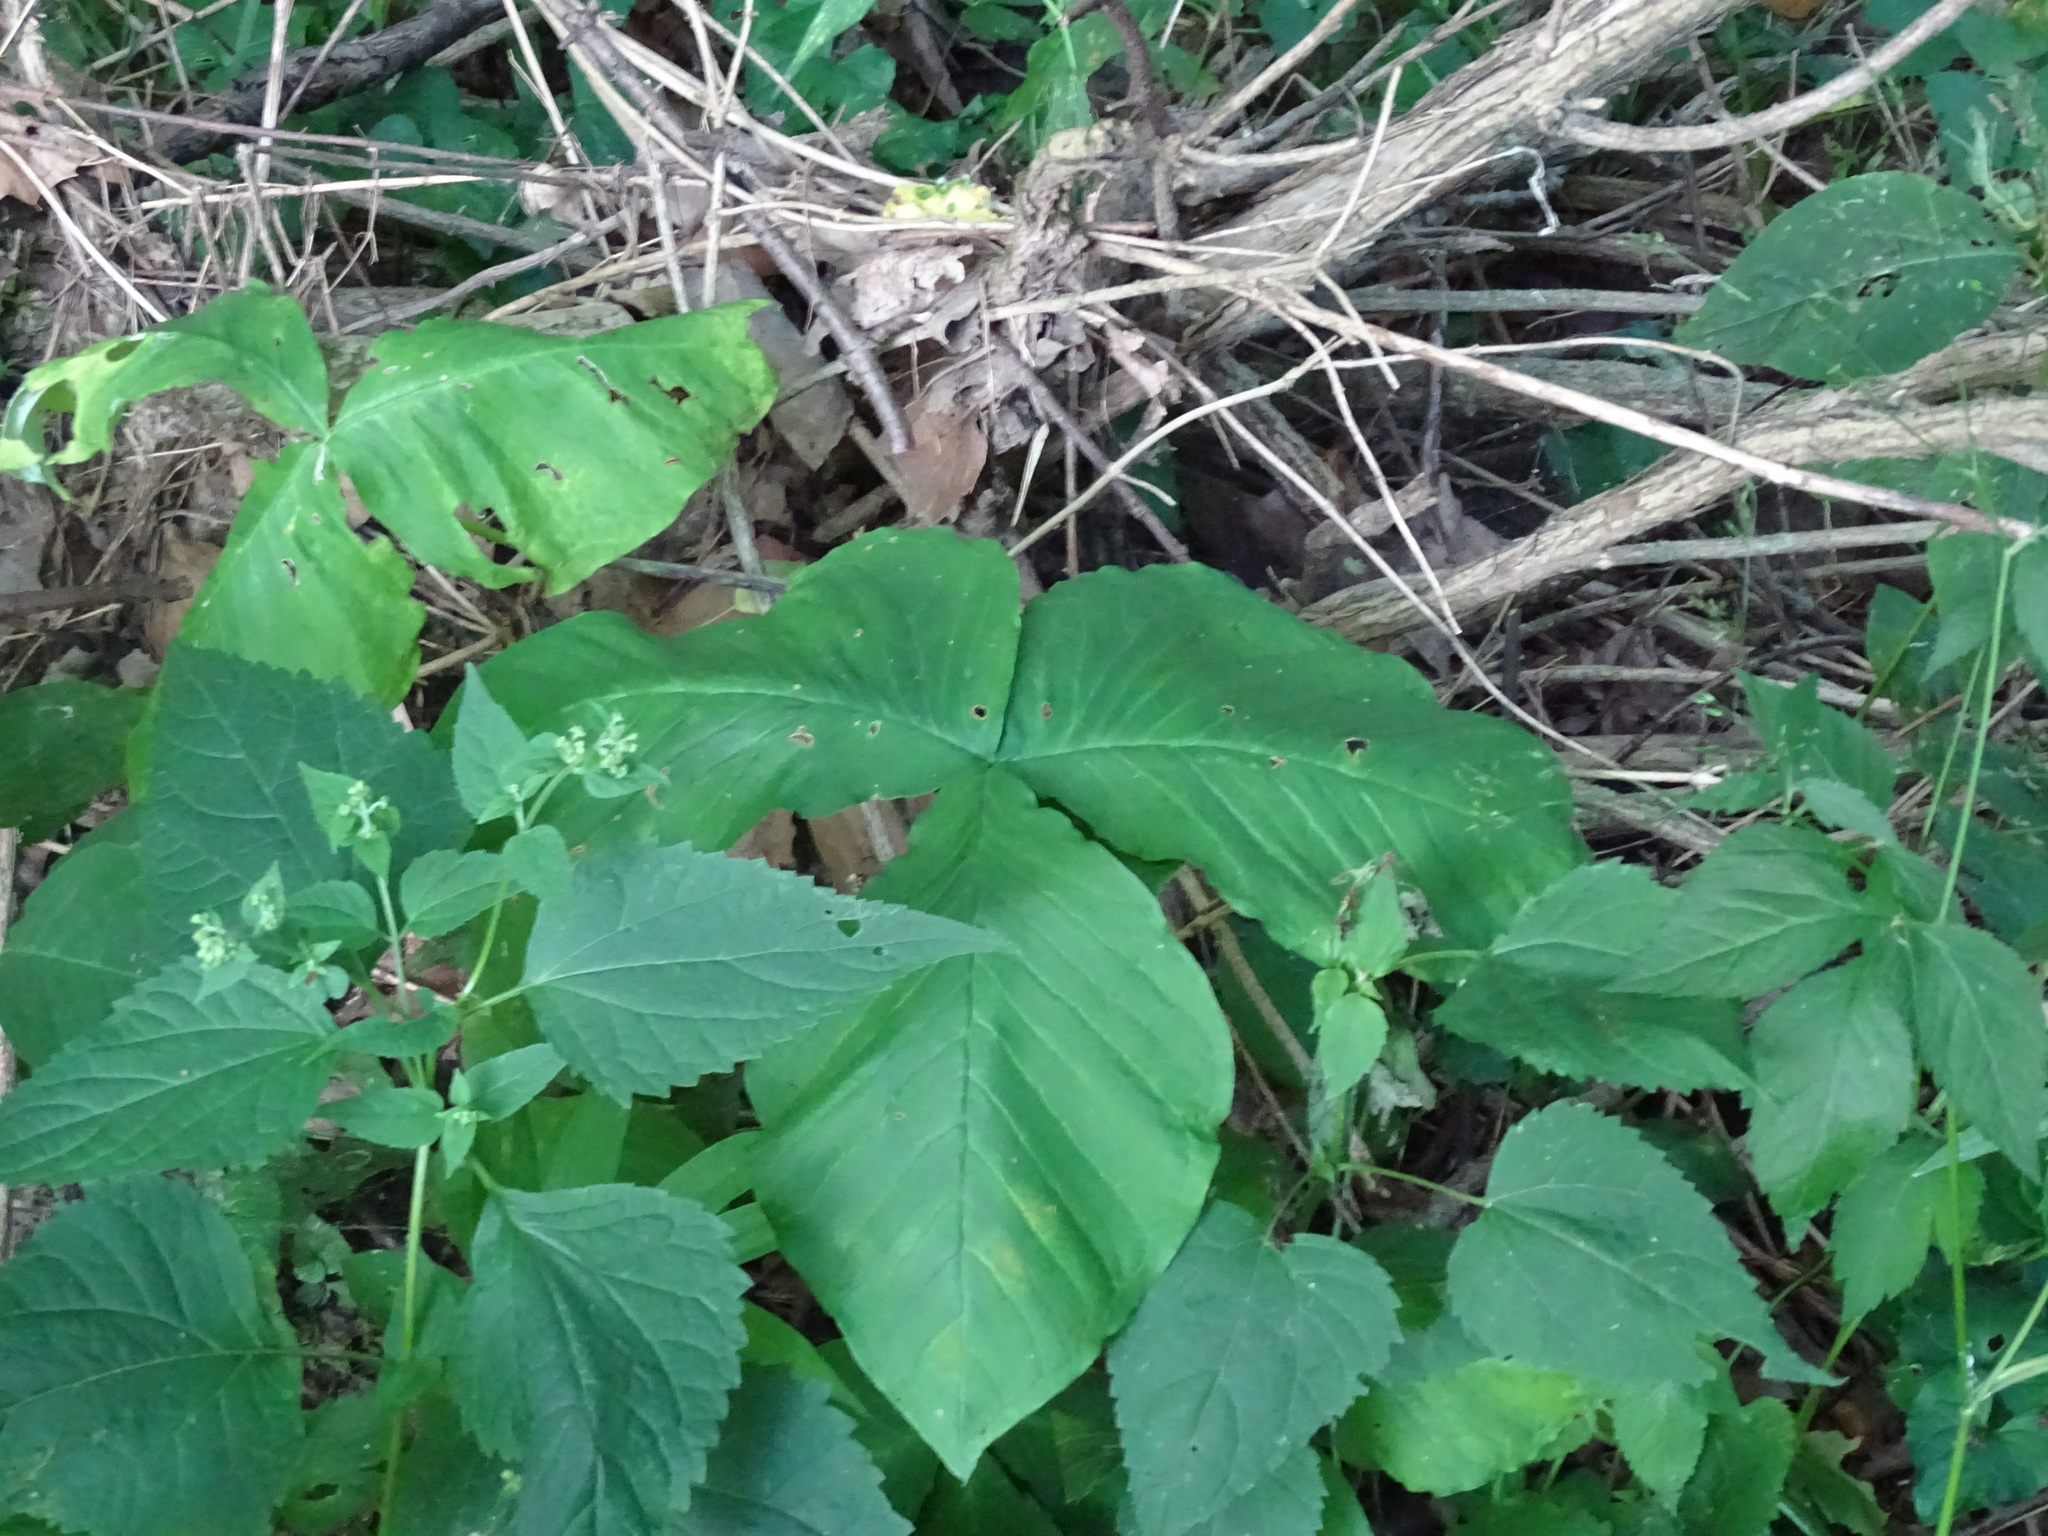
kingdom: Plantae
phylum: Tracheophyta
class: Liliopsida
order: Alismatales
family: Araceae
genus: Arisaema
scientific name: Arisaema triphyllum
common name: Jack-in-the-pulpit
